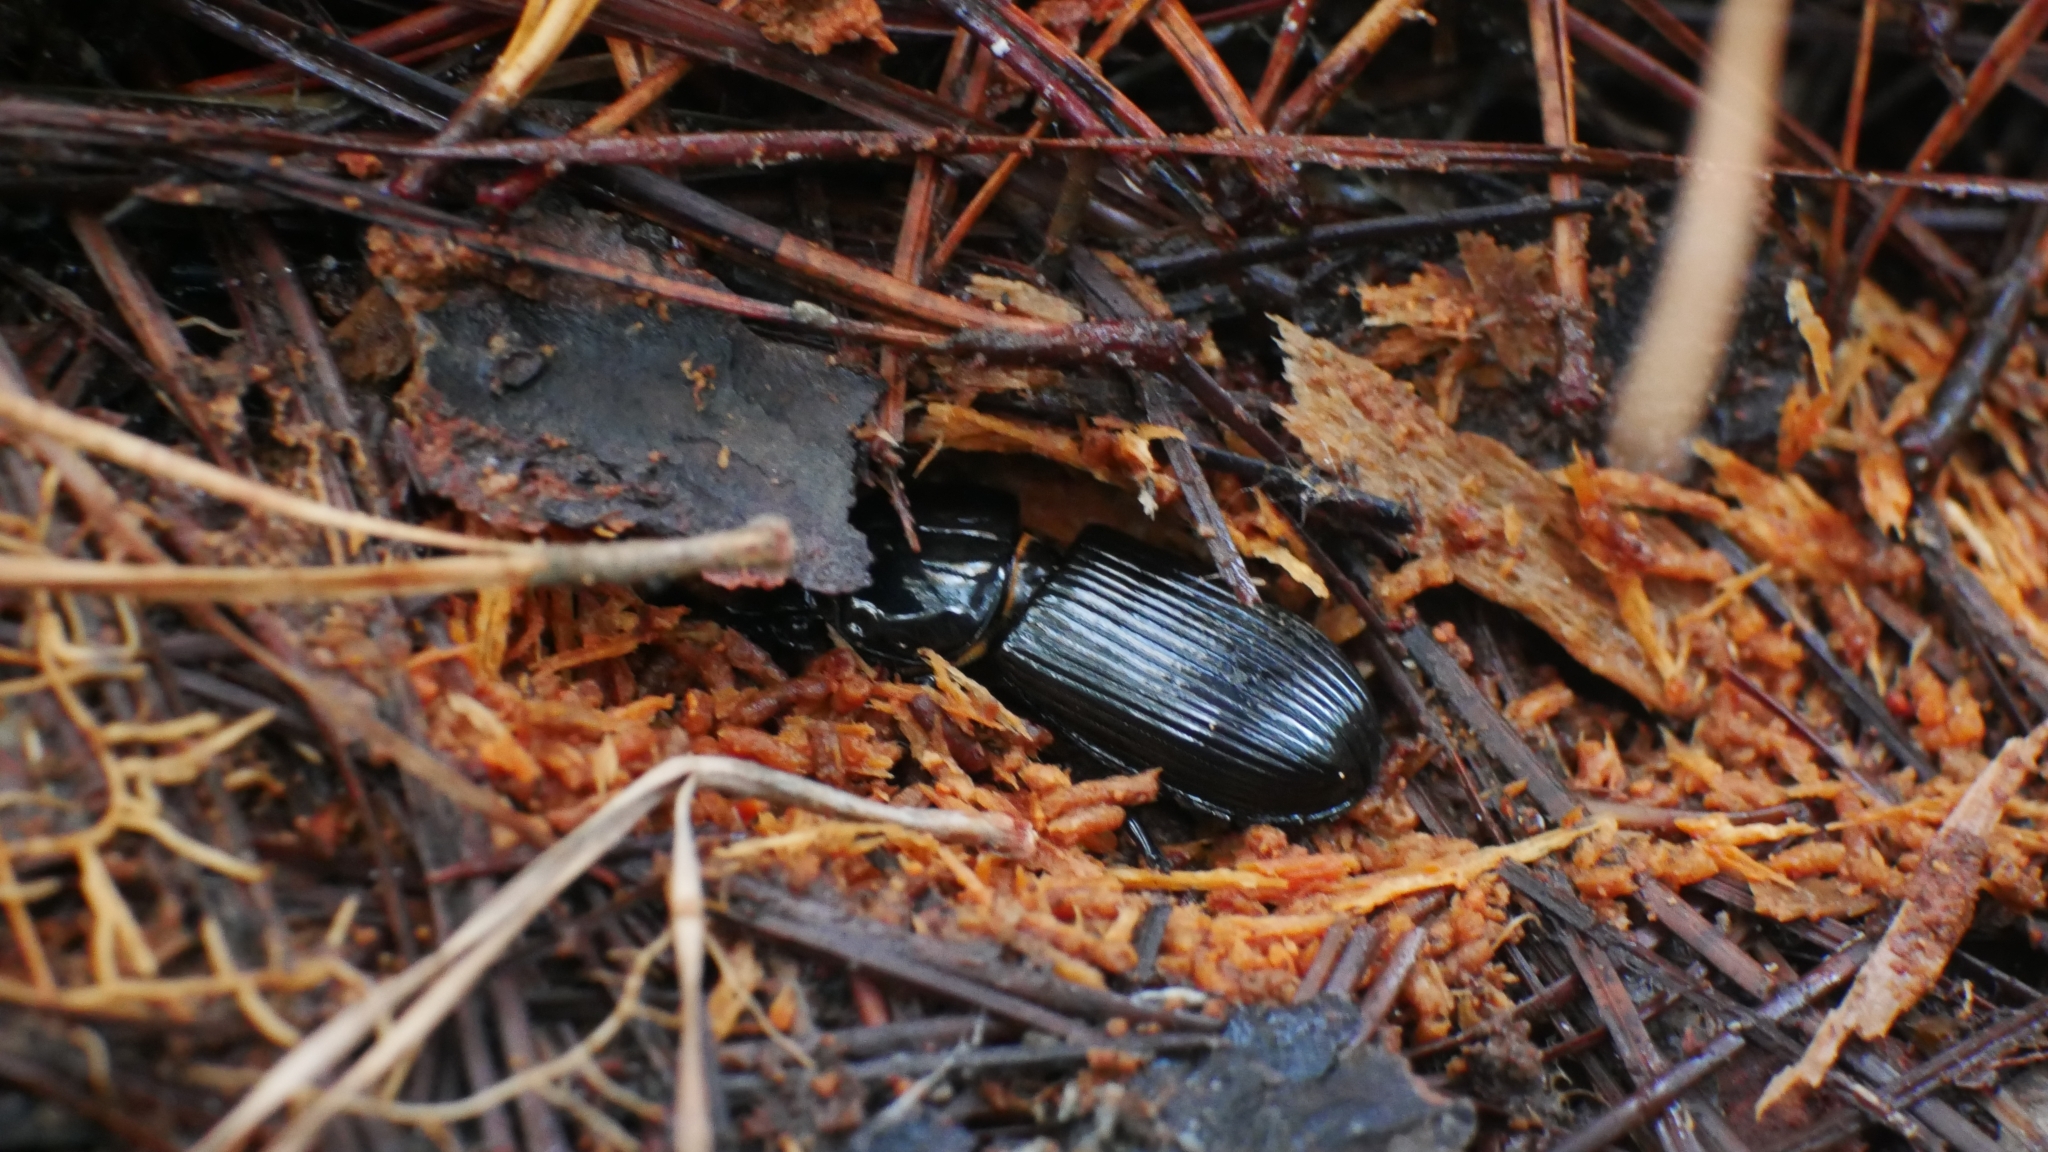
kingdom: Animalia
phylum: Arthropoda
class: Insecta
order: Coleoptera
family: Passalidae
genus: Odontotaenius
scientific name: Odontotaenius disjunctus
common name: Patent leather beetle
